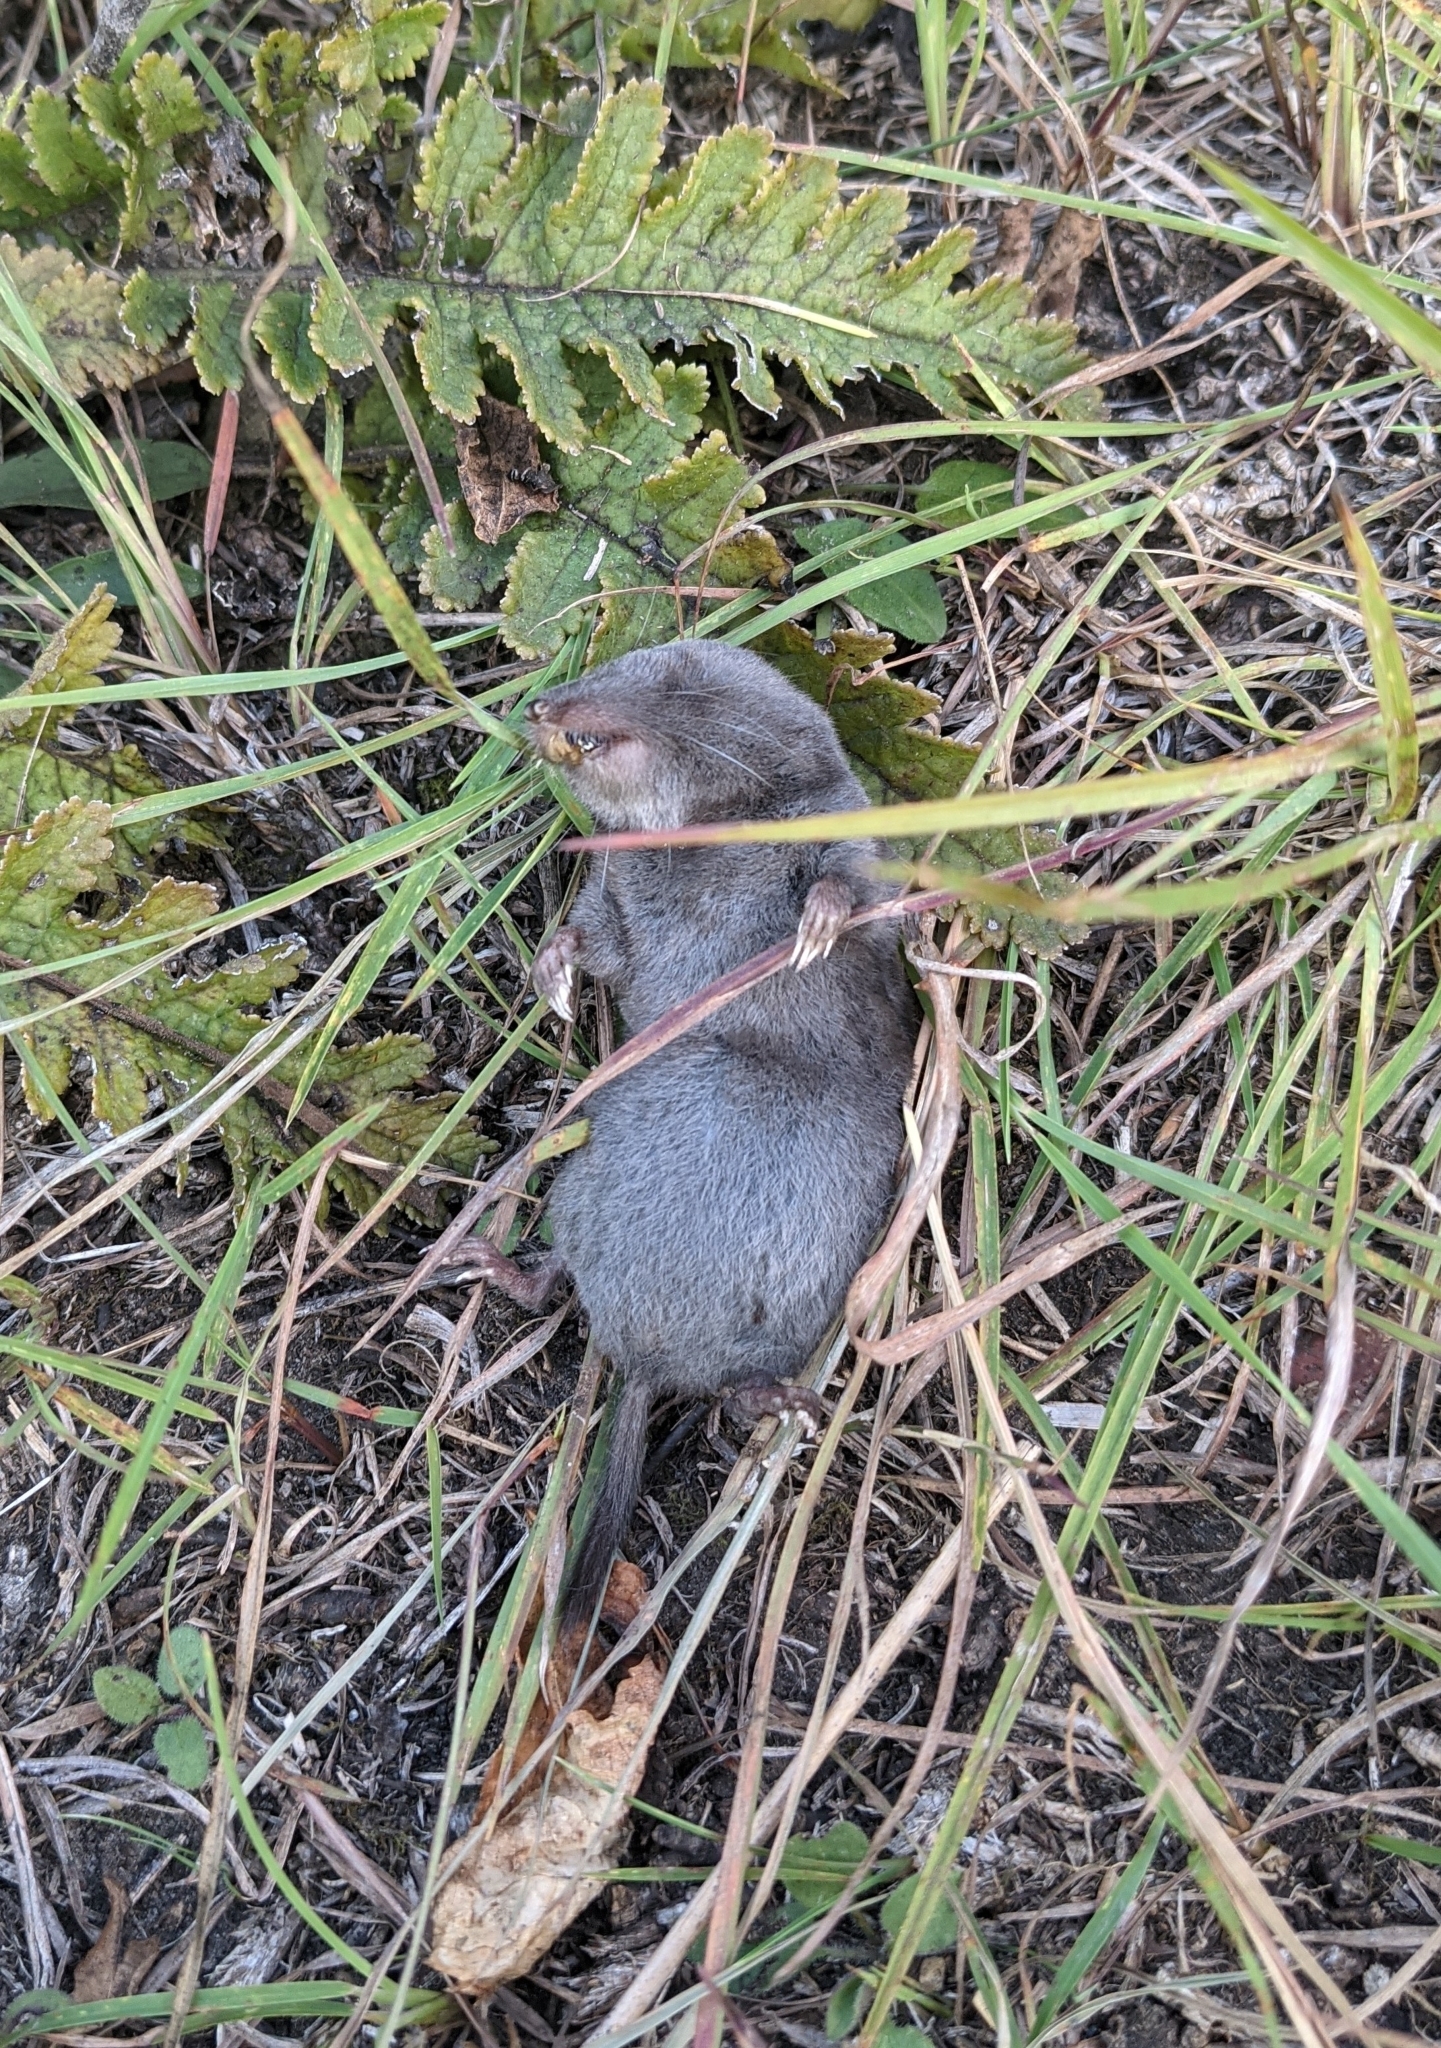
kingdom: Animalia
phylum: Chordata
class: Mammalia
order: Soricomorpha
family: Soricidae
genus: Blarina
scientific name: Blarina brevicauda
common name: Northern short-tailed shrew
